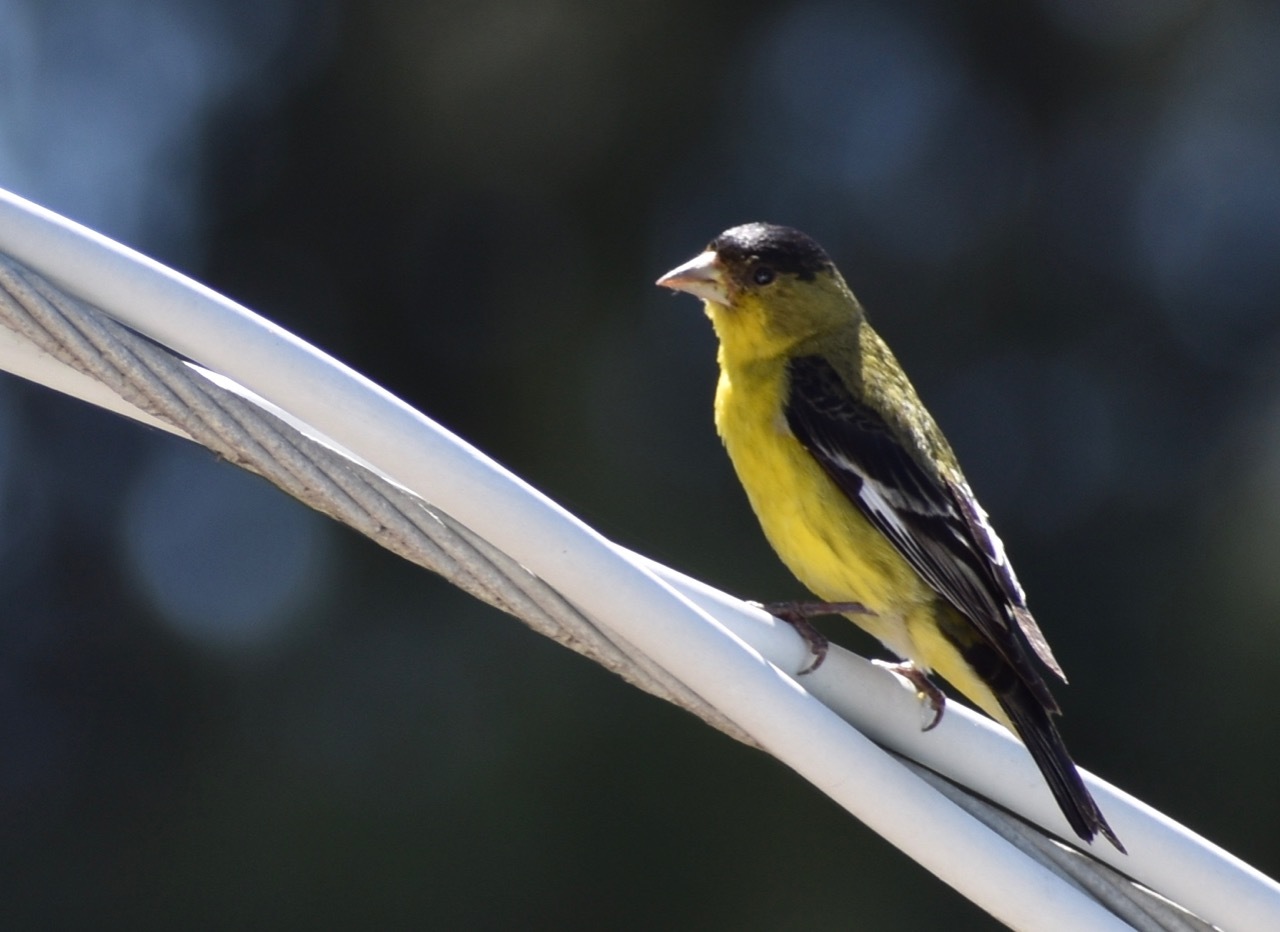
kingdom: Animalia
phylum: Chordata
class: Aves
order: Passeriformes
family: Fringillidae
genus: Spinus
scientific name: Spinus psaltria
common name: Lesser goldfinch
